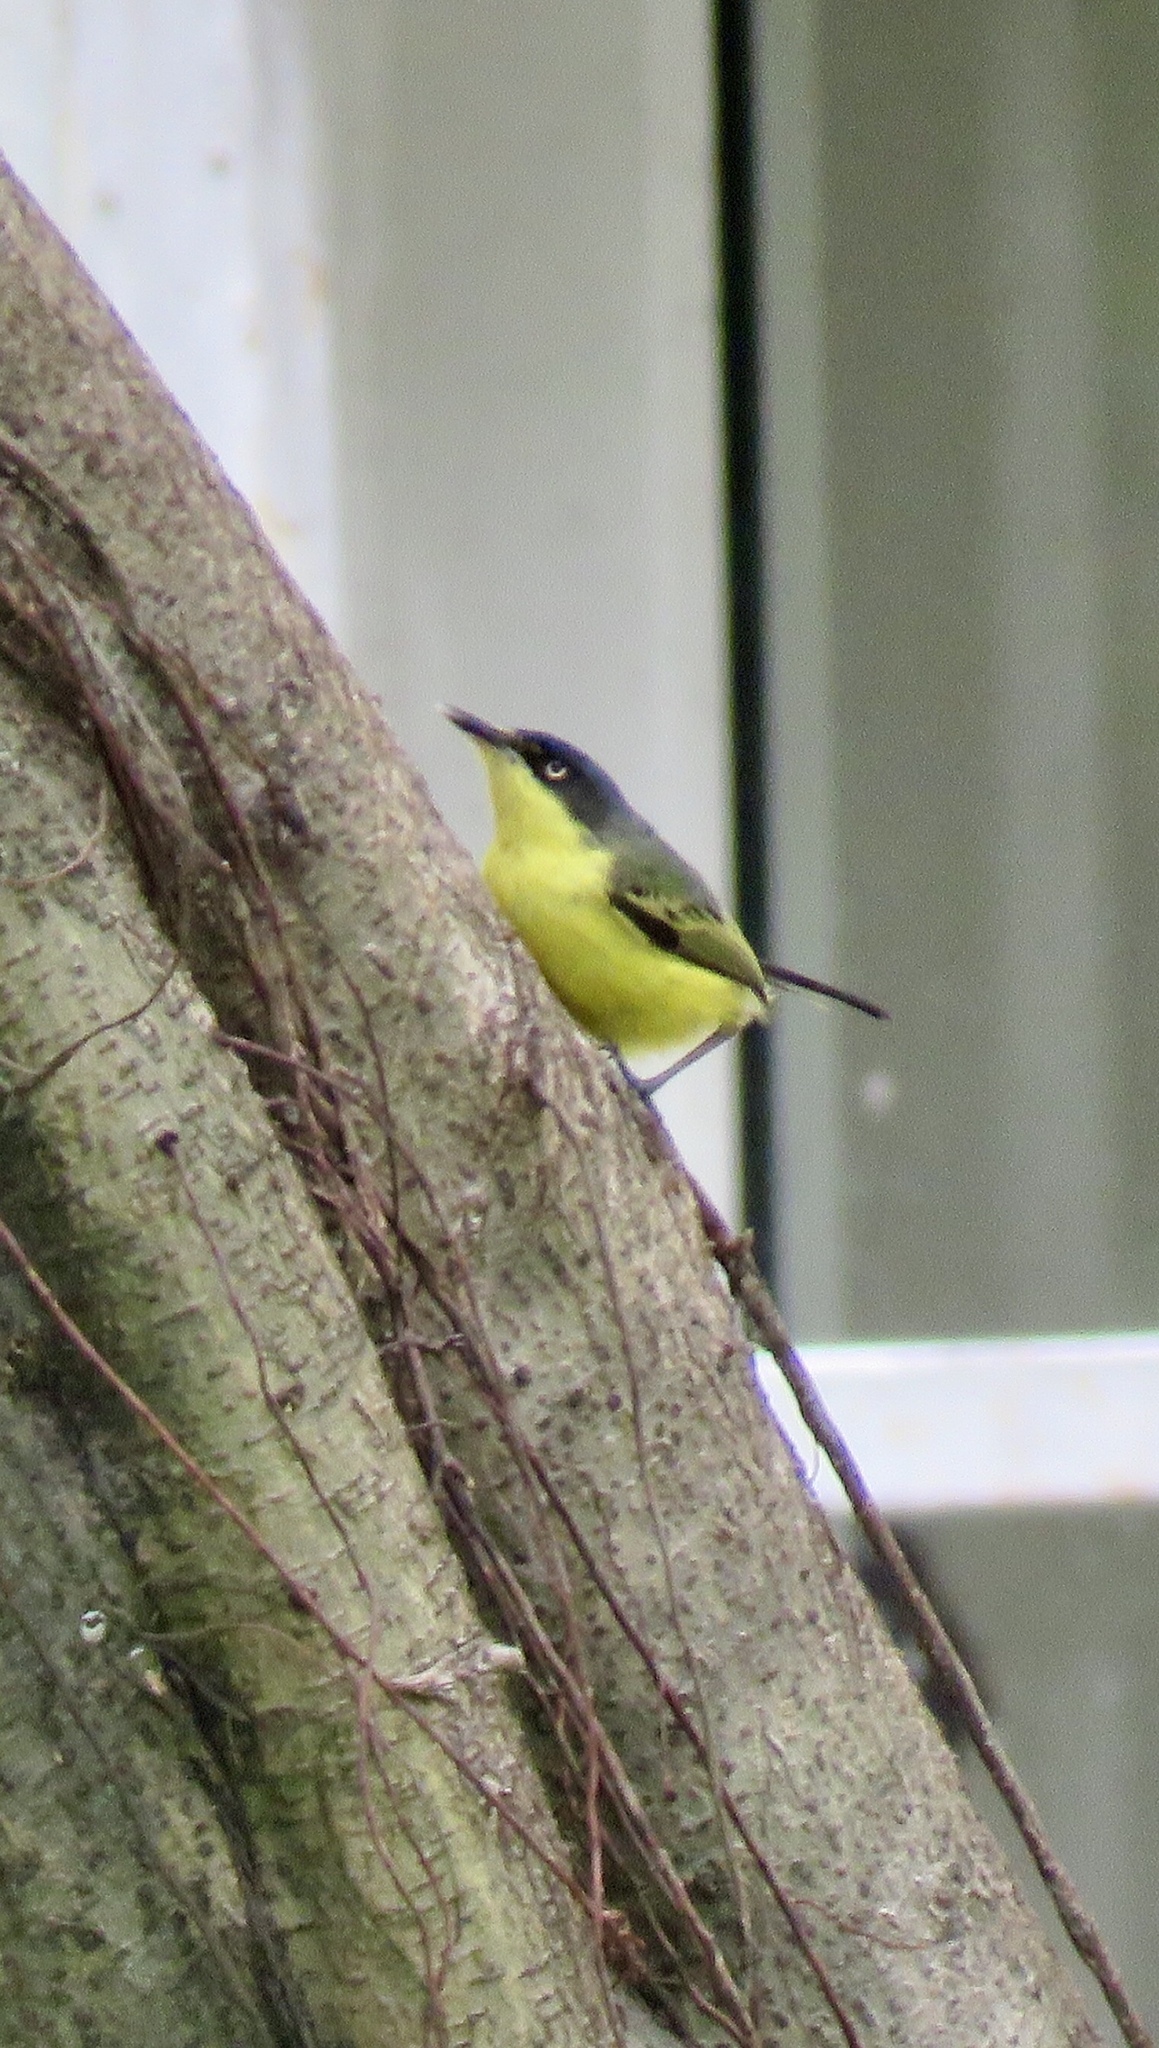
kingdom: Animalia
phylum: Chordata
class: Aves
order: Passeriformes
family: Tyrannidae
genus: Todirostrum
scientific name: Todirostrum cinereum
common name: Common tody-flycatcher
